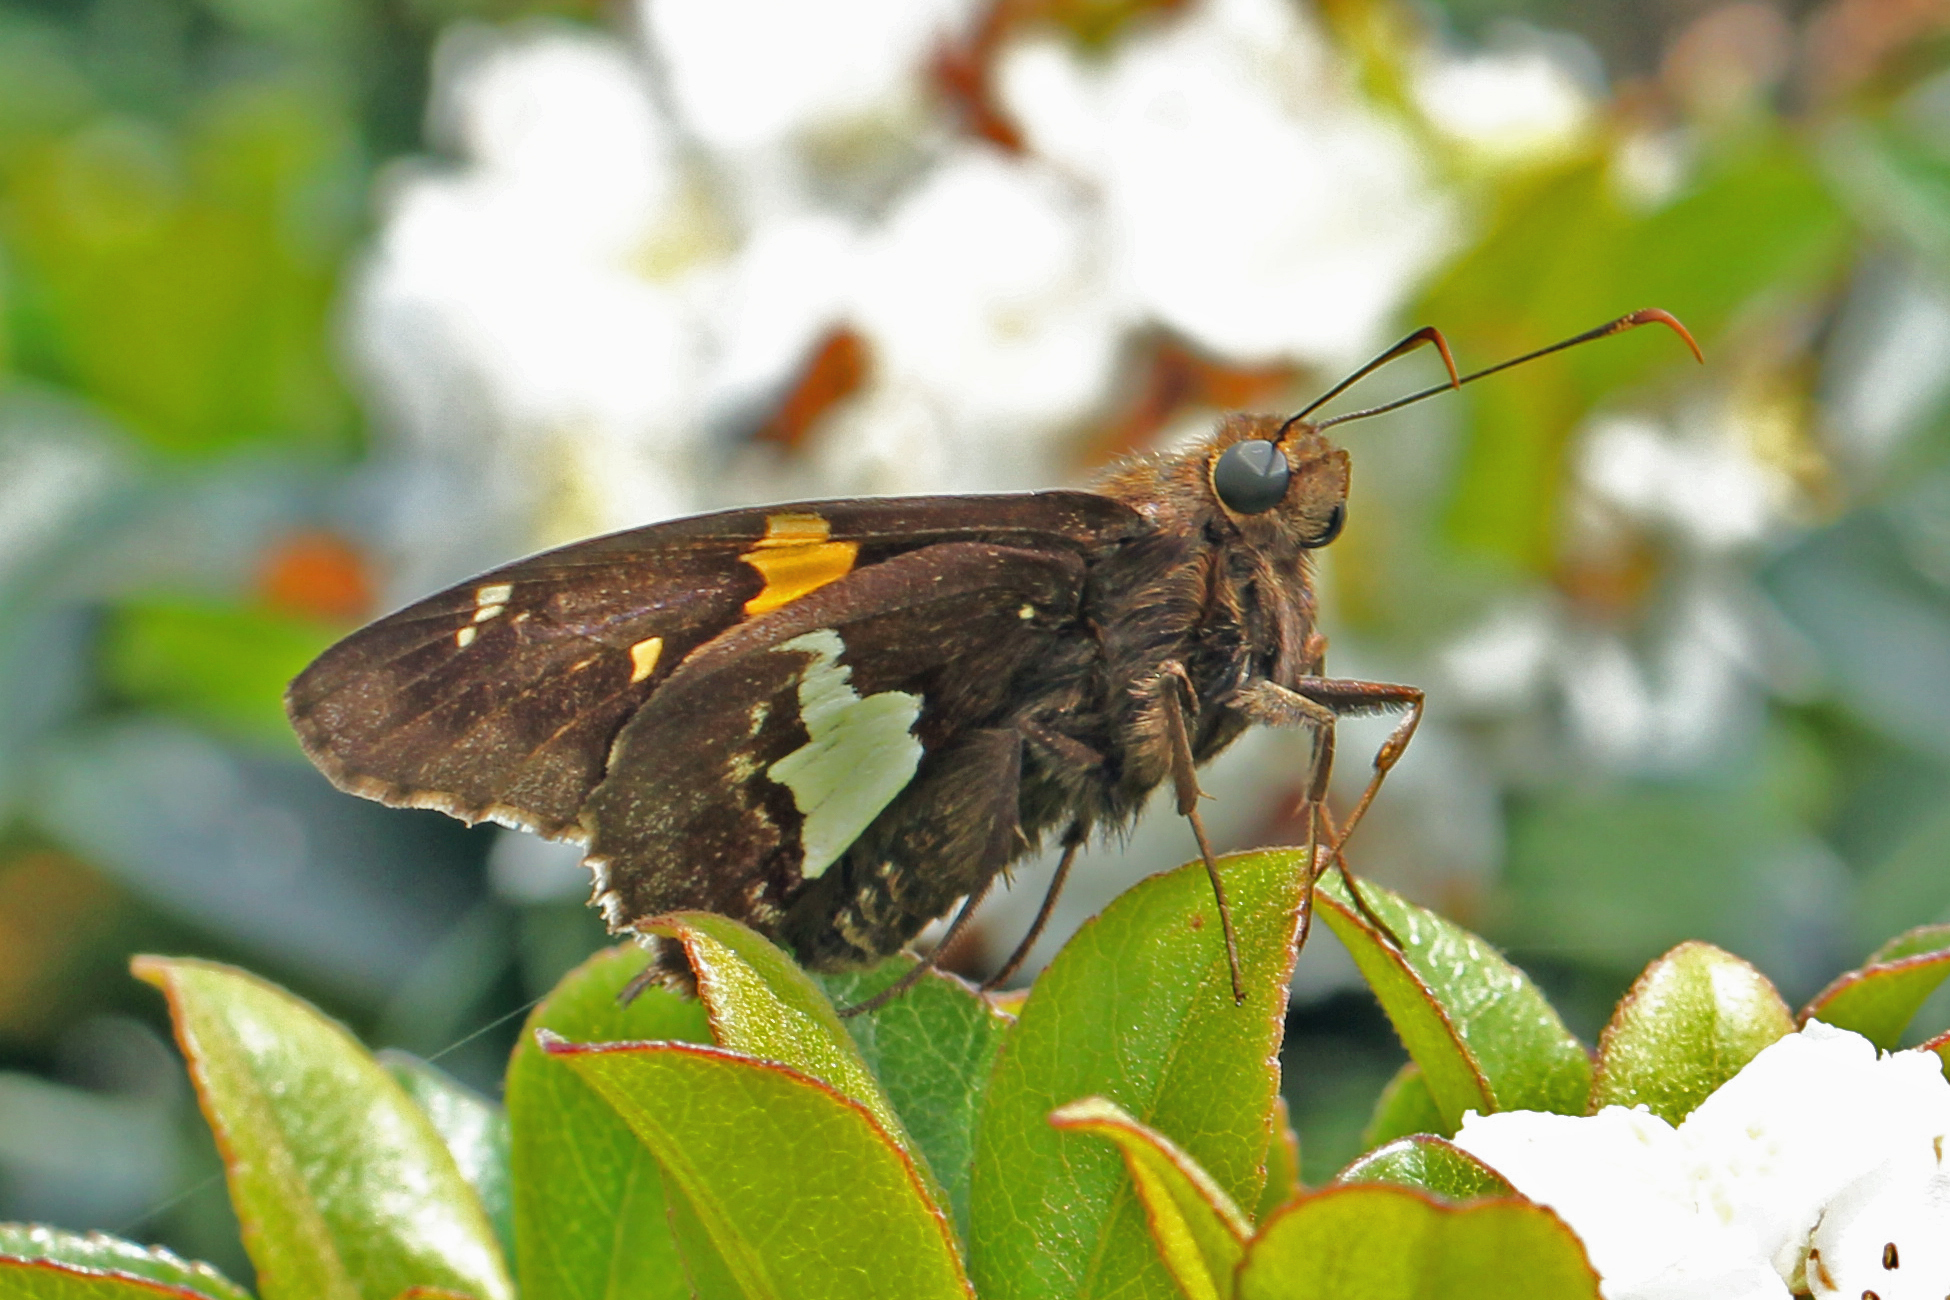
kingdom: Animalia
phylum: Arthropoda
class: Insecta
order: Lepidoptera
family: Hesperiidae
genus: Epargyreus
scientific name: Epargyreus clarus
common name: Silver-spotted skipper
